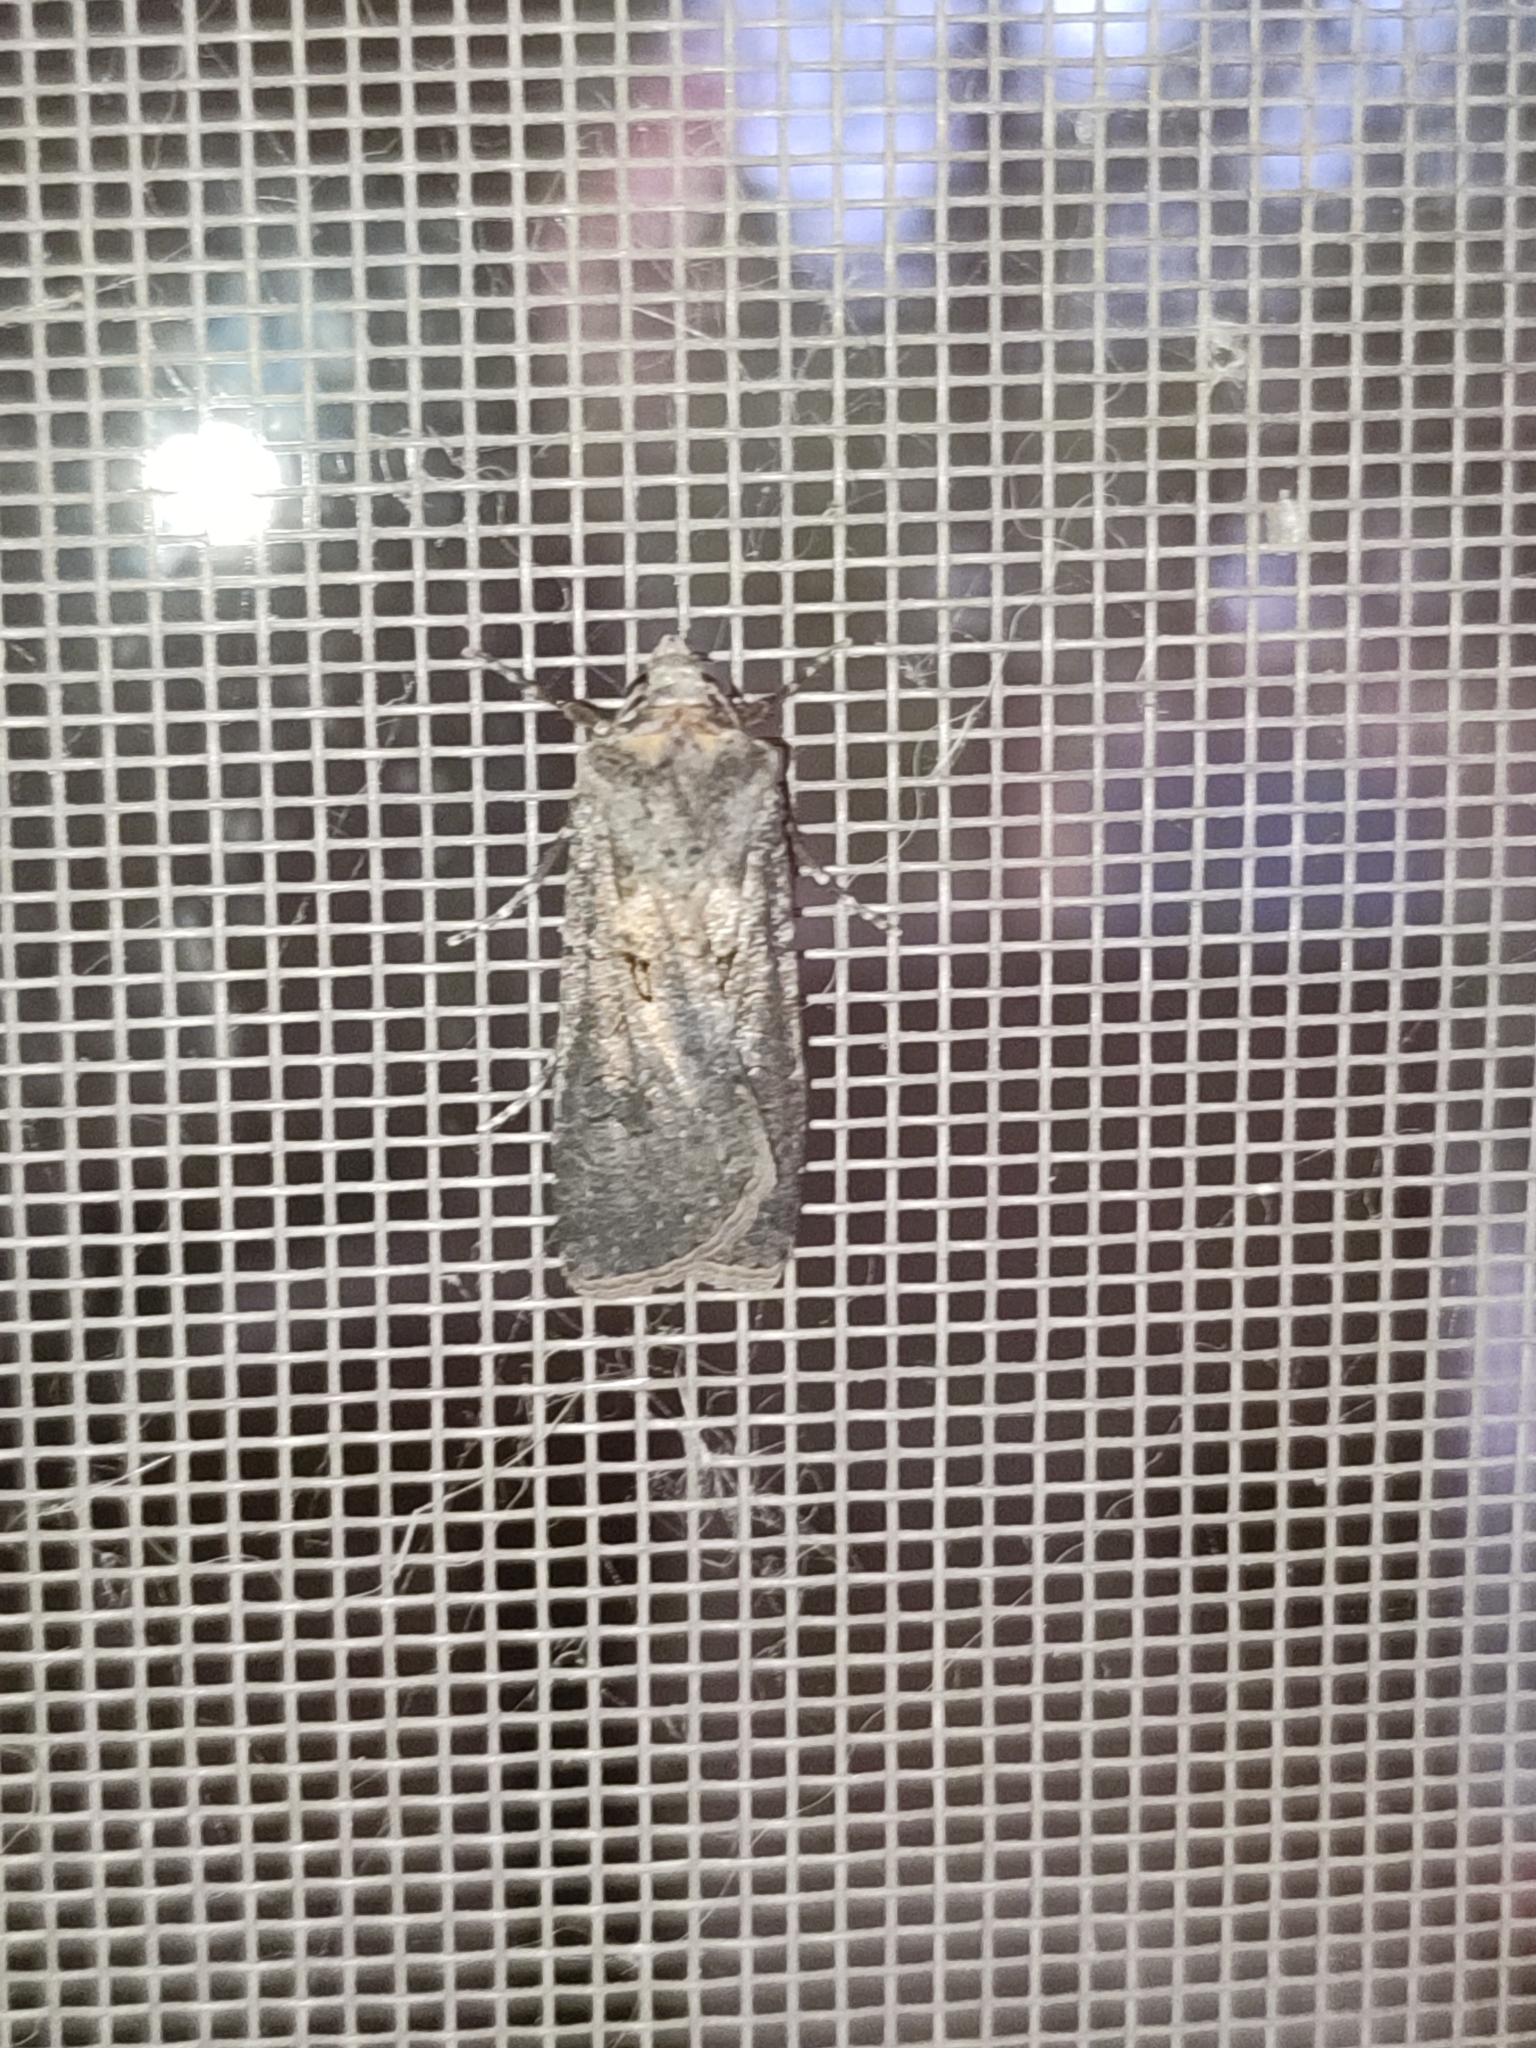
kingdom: Animalia
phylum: Arthropoda
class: Insecta
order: Lepidoptera
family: Noctuidae
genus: Agrotis
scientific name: Agrotis segetum
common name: Turnip moth
